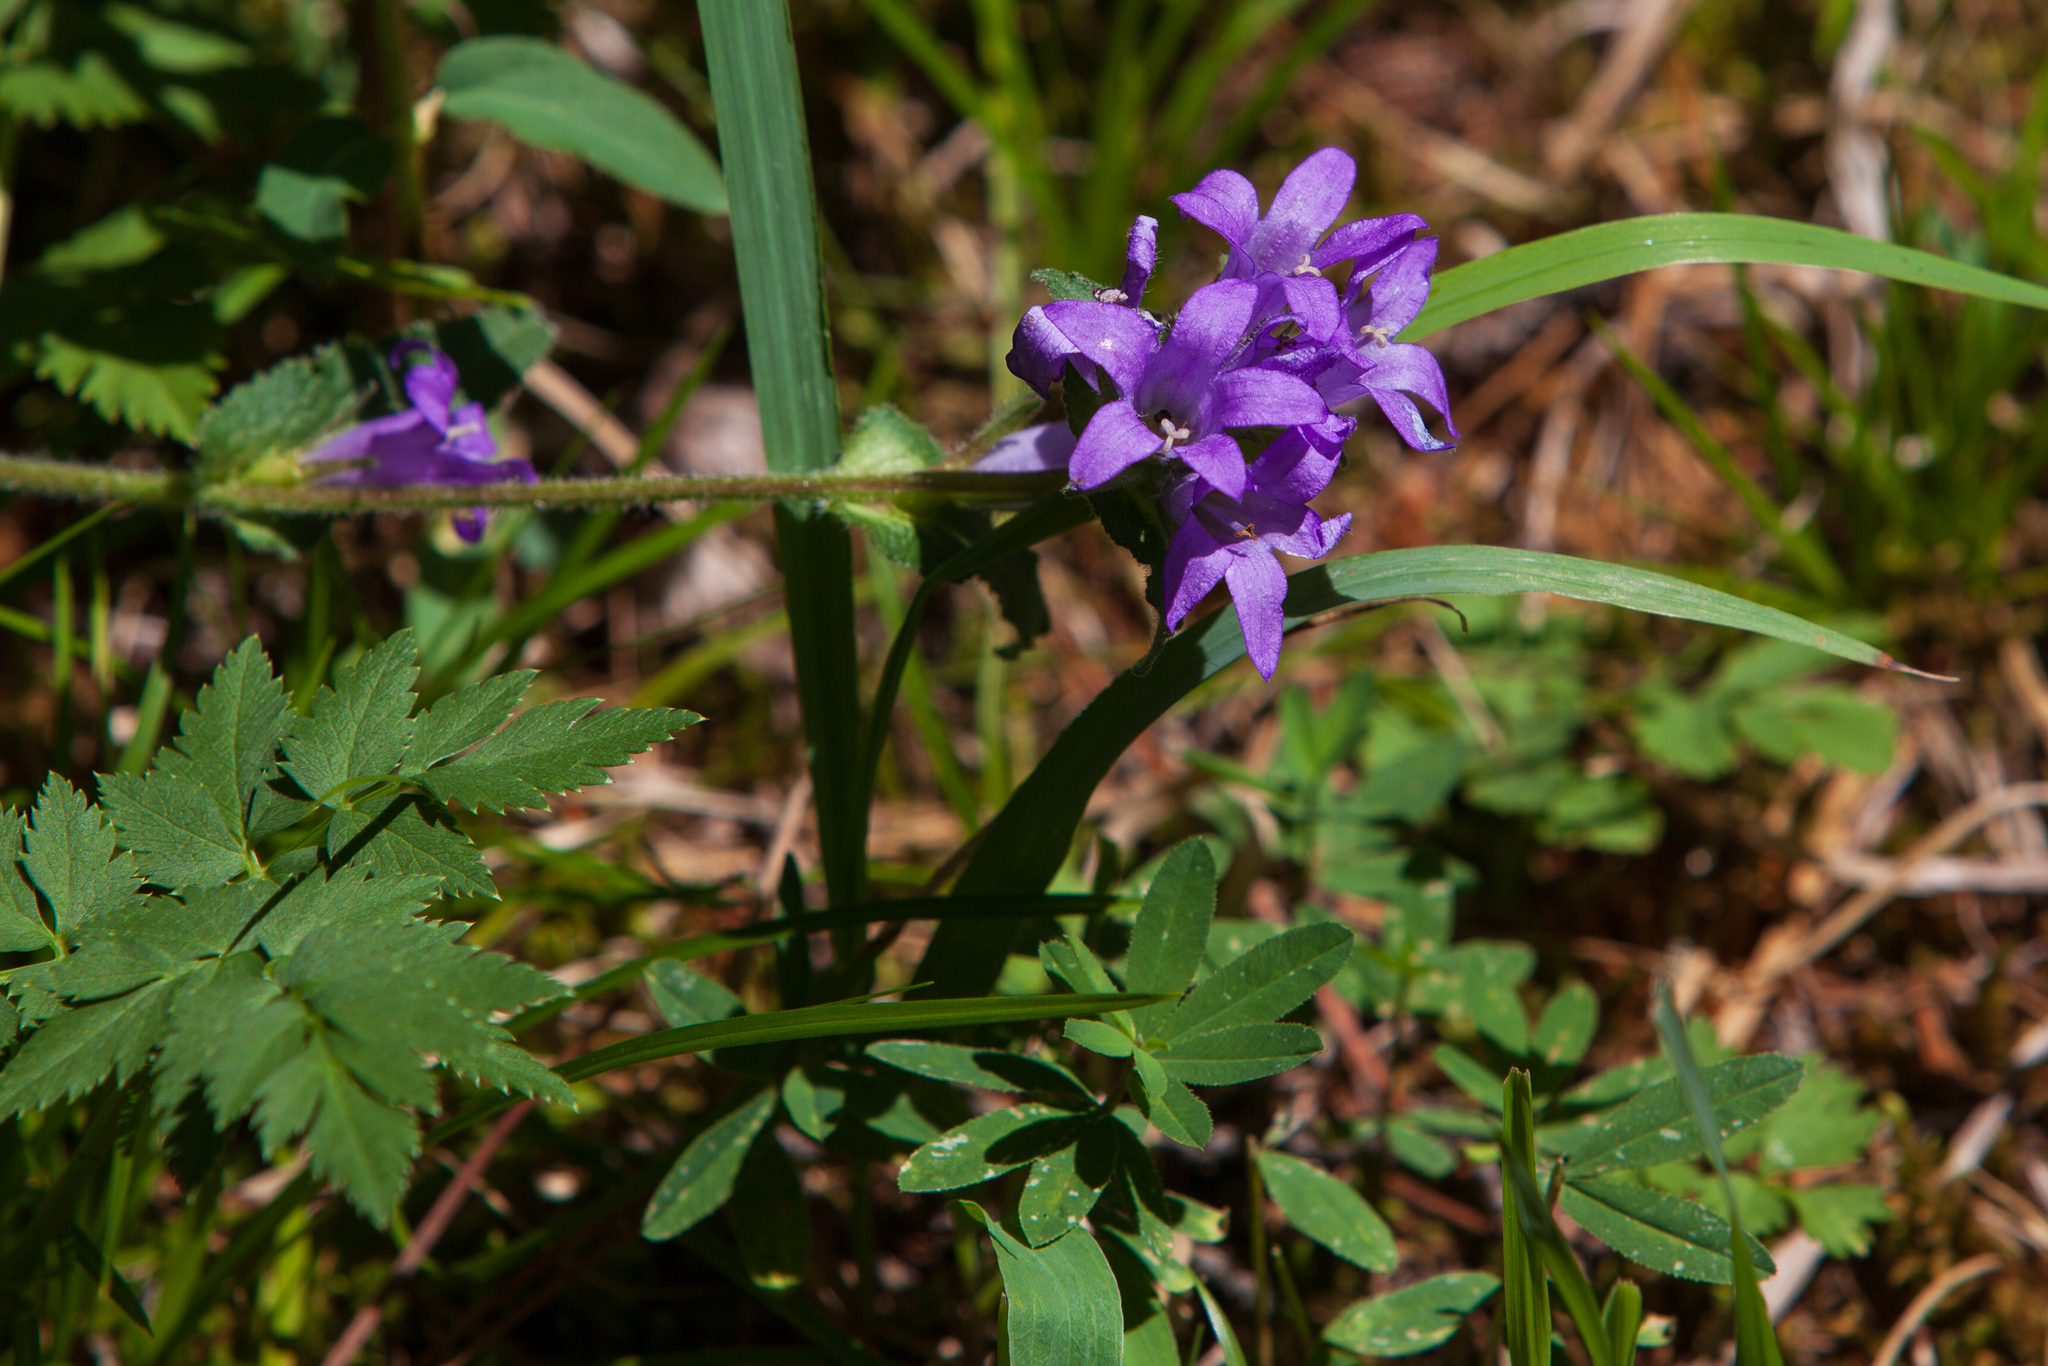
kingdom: Plantae
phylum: Tracheophyta
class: Magnoliopsida
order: Asterales
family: Campanulaceae
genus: Campanula
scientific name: Campanula glomerata
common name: Clustered bellflower
